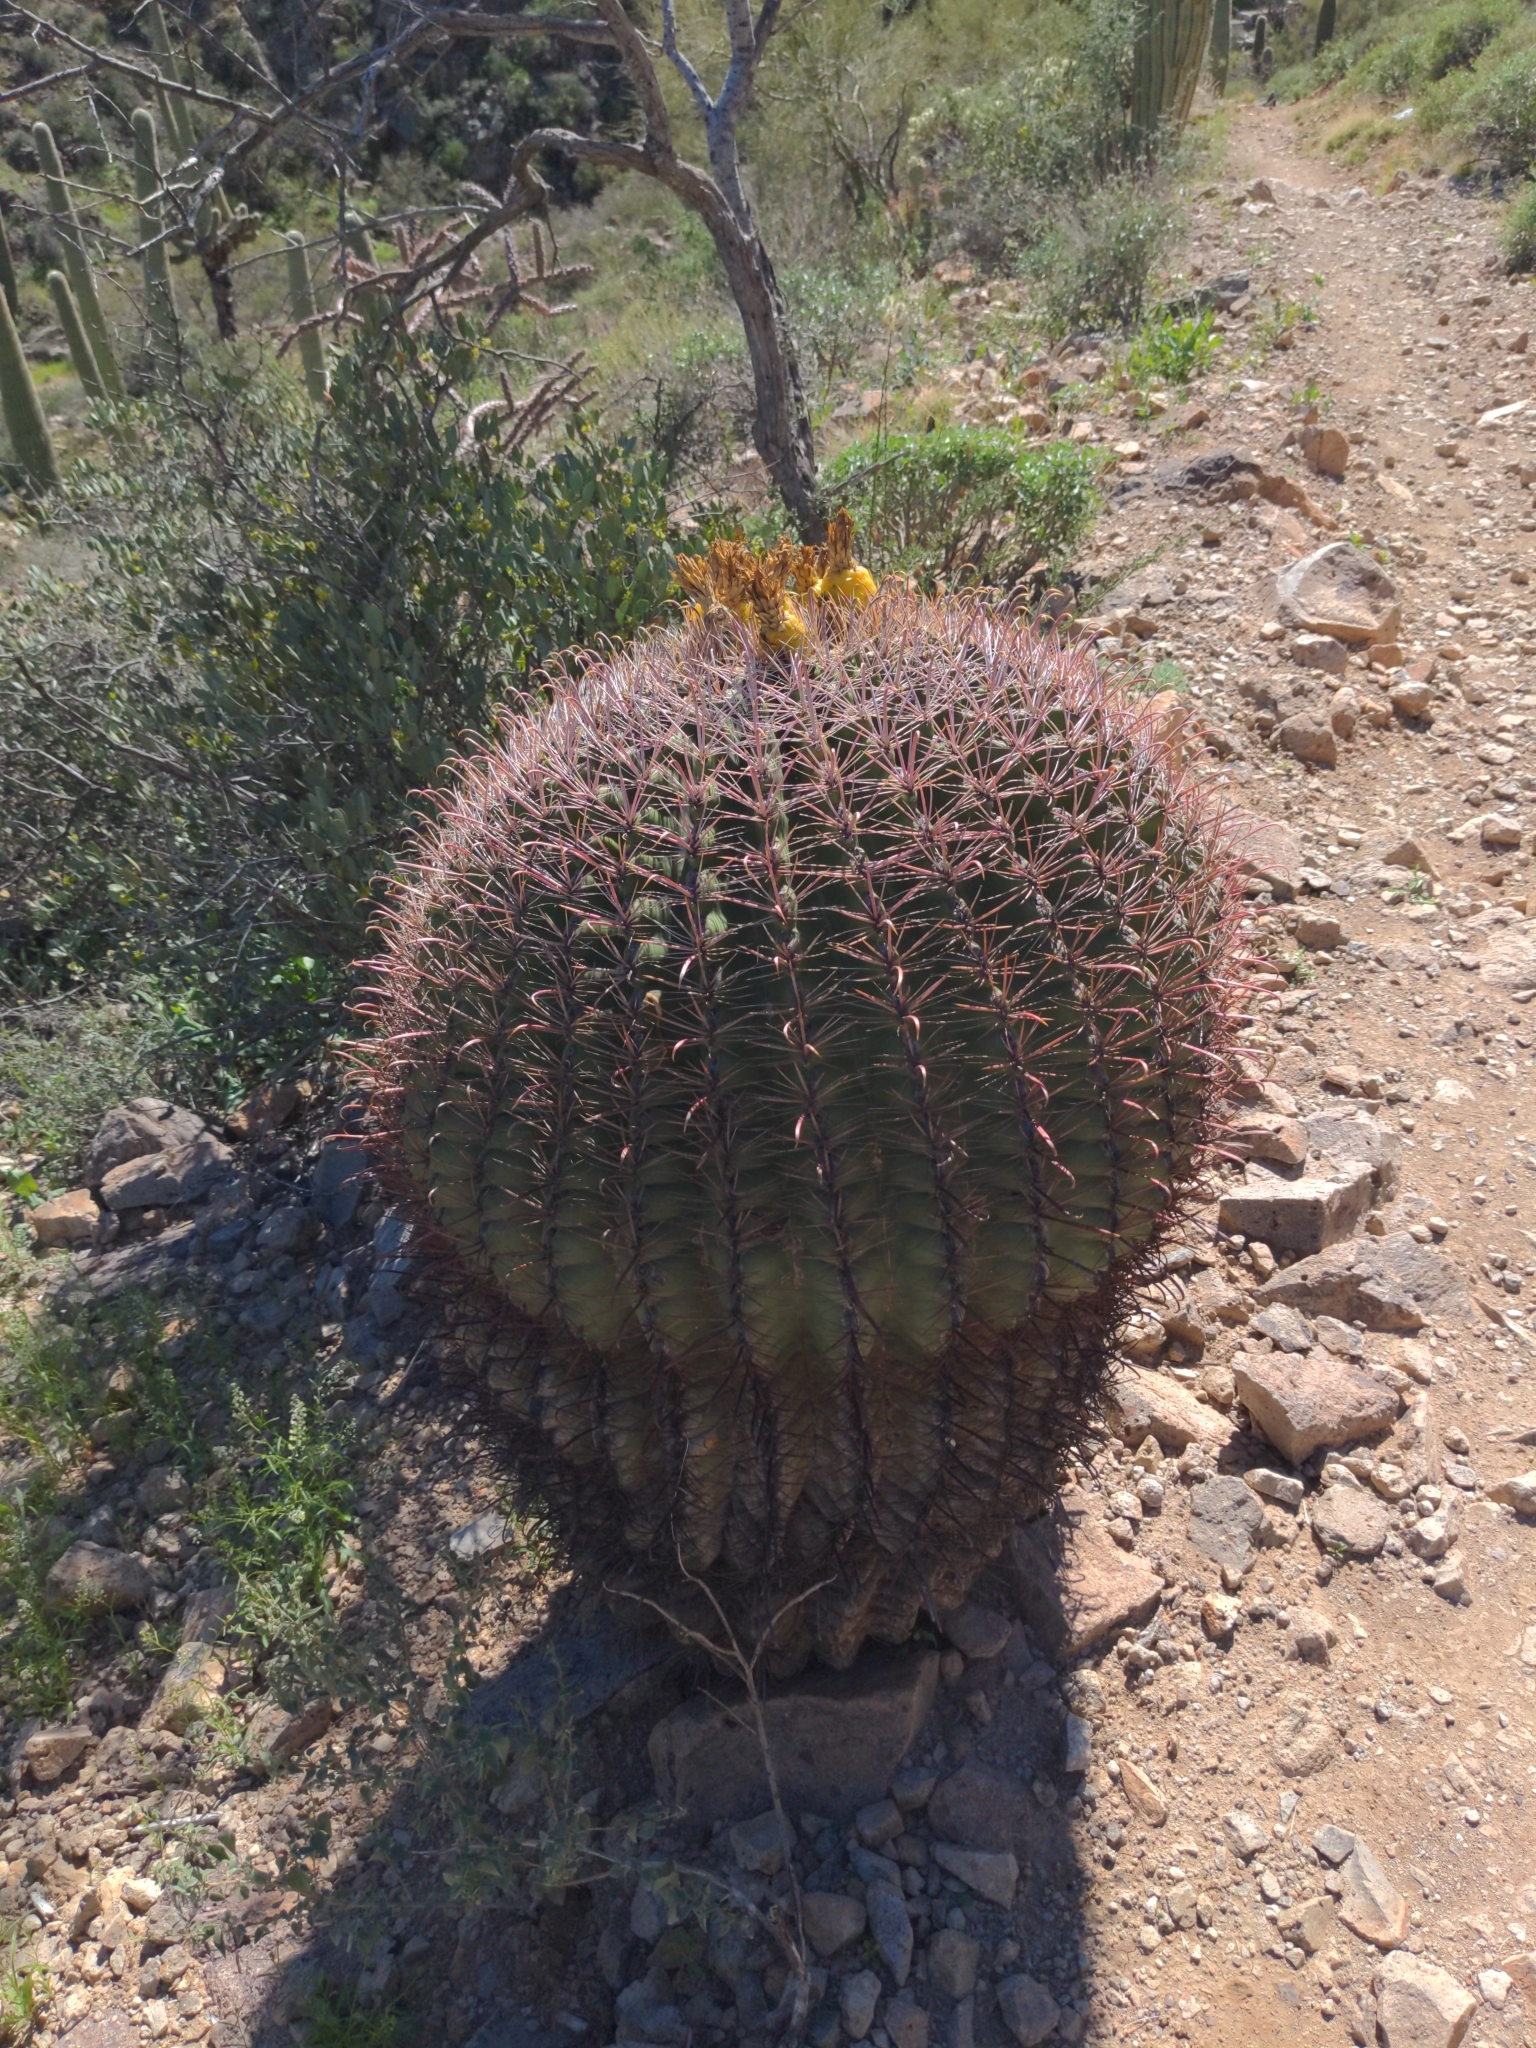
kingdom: Plantae
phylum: Tracheophyta
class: Magnoliopsida
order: Caryophyllales
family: Cactaceae
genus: Ferocactus
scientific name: Ferocactus wislizeni
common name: Candy barrel cactus
